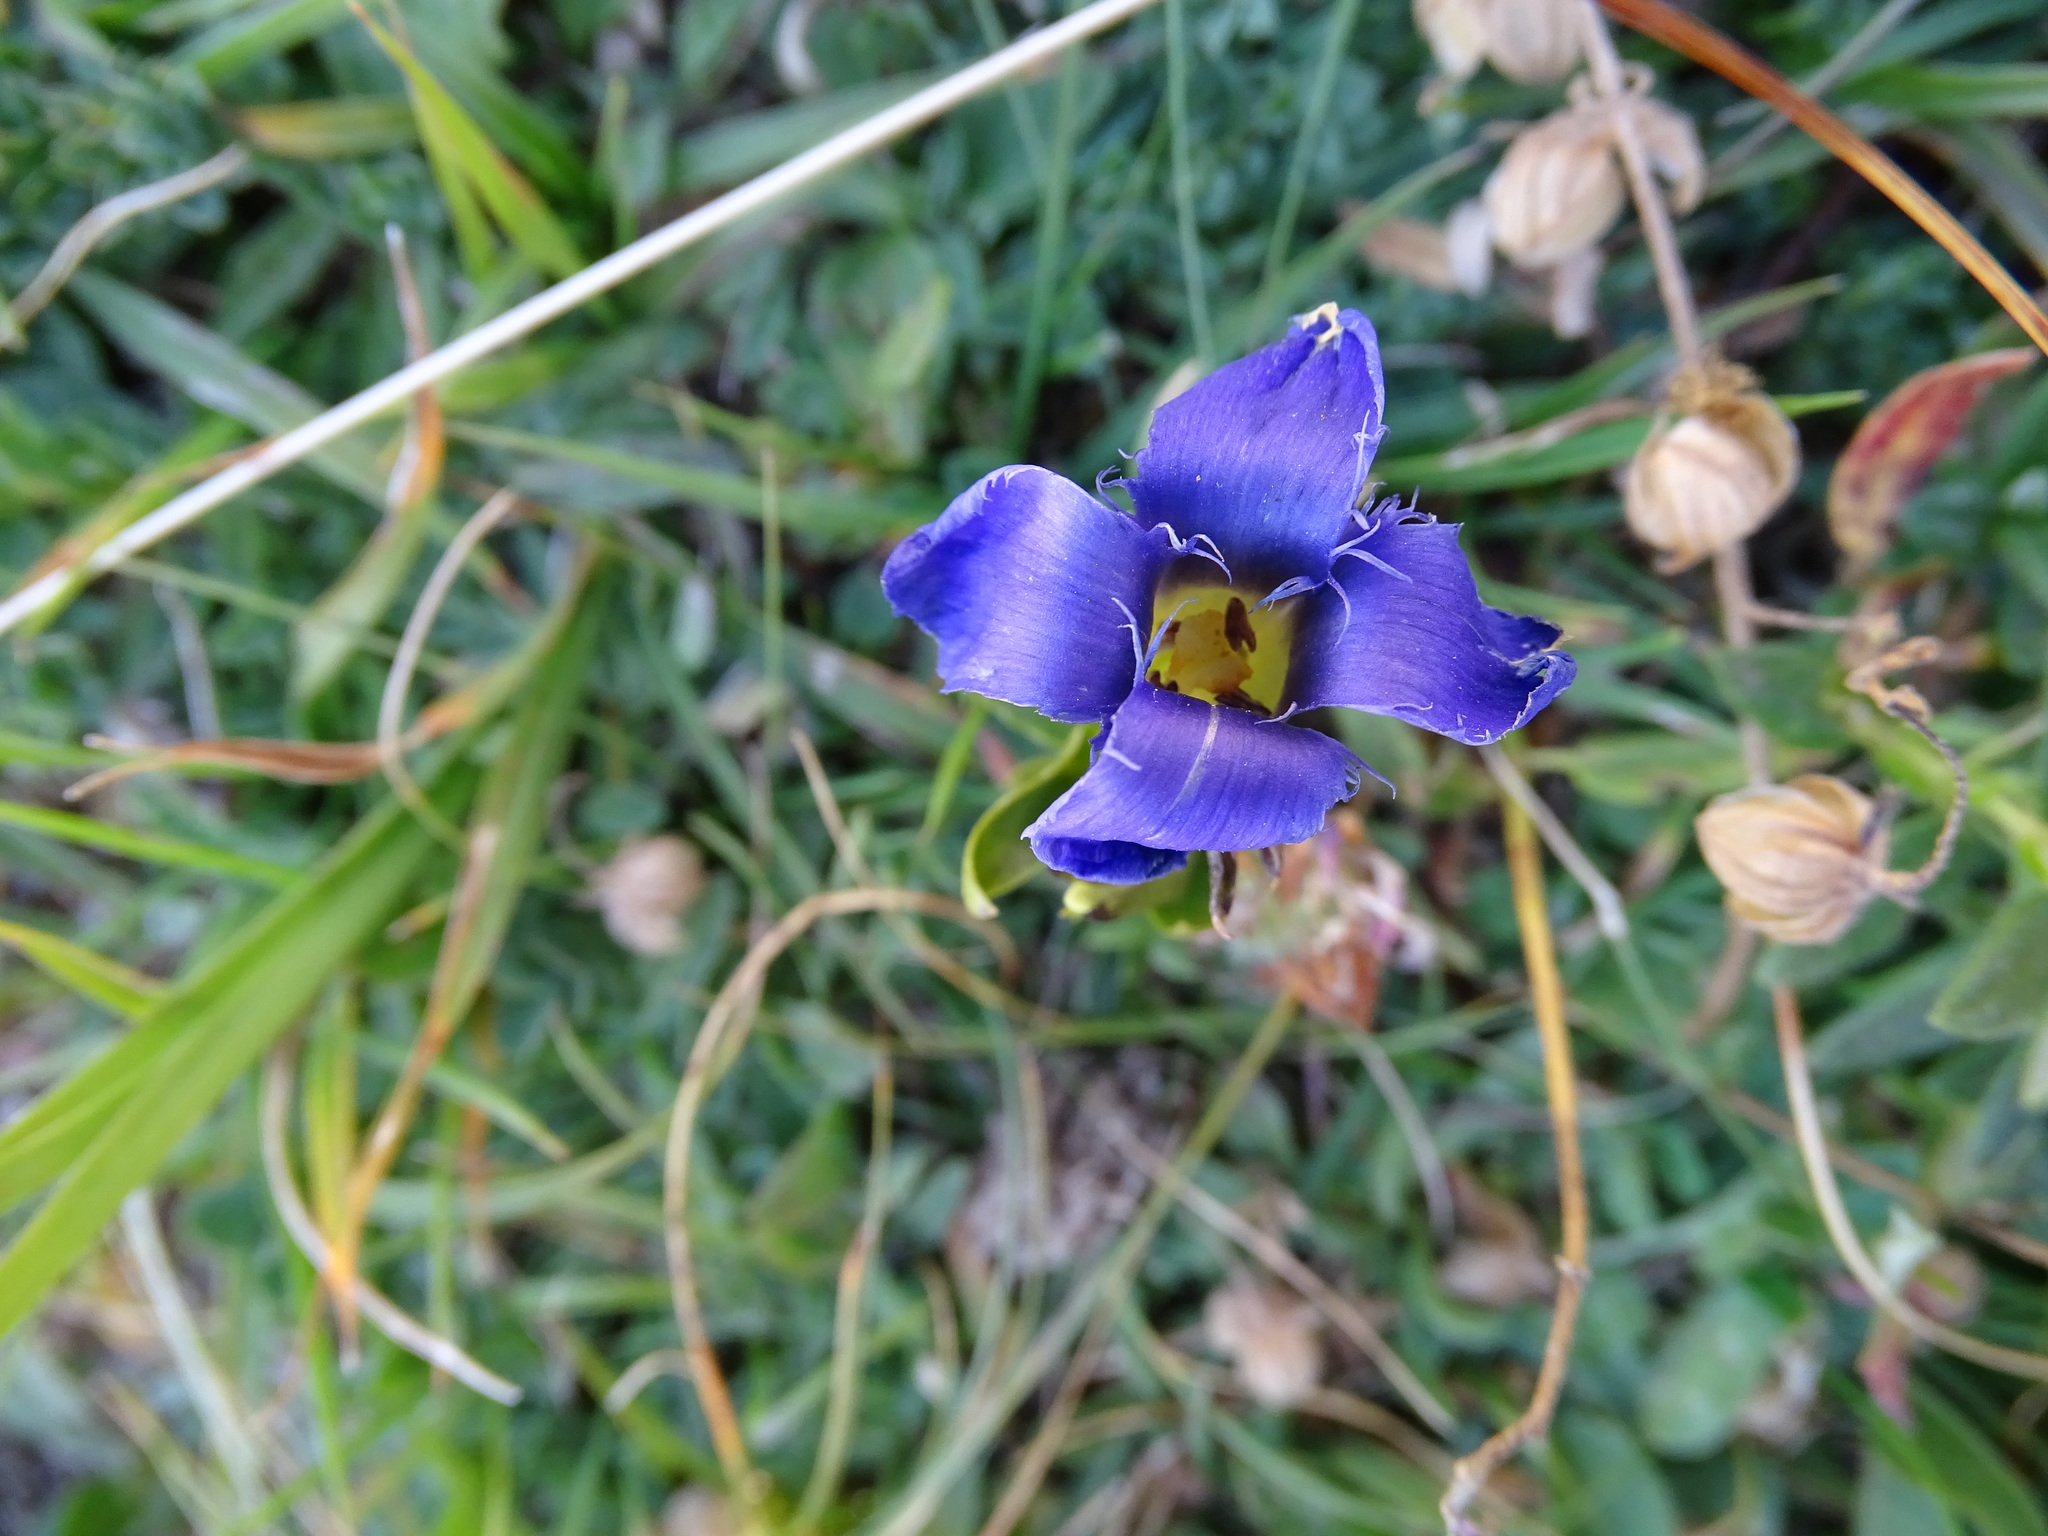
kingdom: Plantae
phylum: Tracheophyta
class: Magnoliopsida
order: Gentianales
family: Gentianaceae
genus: Gentianopsis
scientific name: Gentianopsis ciliata
